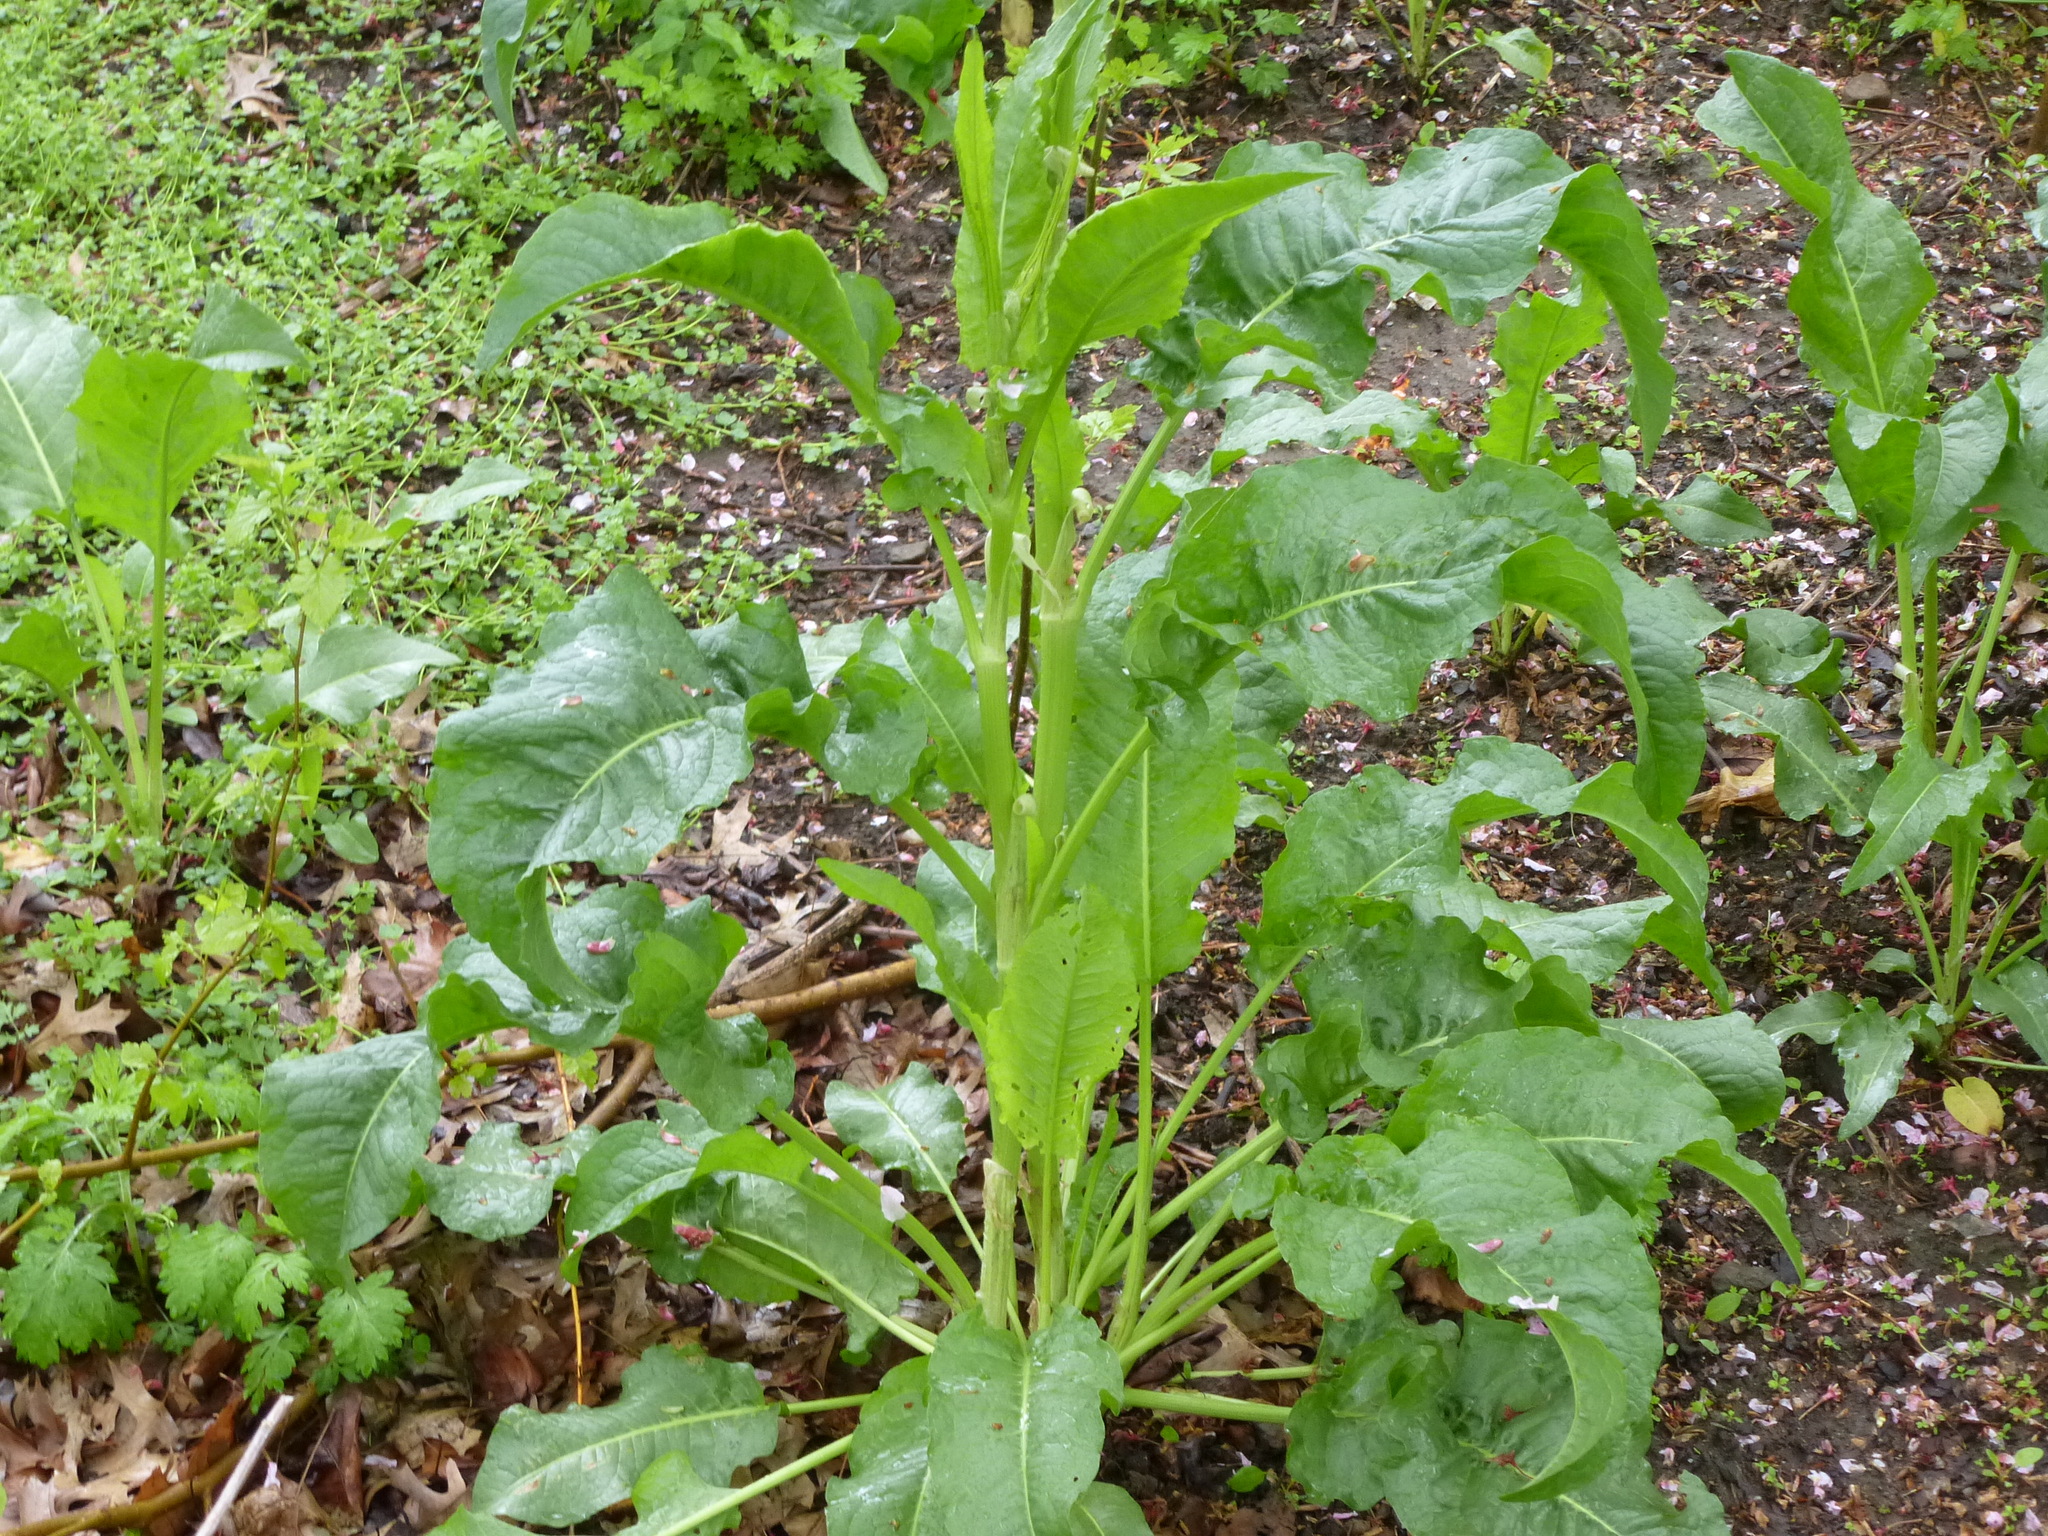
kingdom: Plantae
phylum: Tracheophyta
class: Magnoliopsida
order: Caryophyllales
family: Polygonaceae
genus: Rumex
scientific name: Rumex crispus
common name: Curled dock
